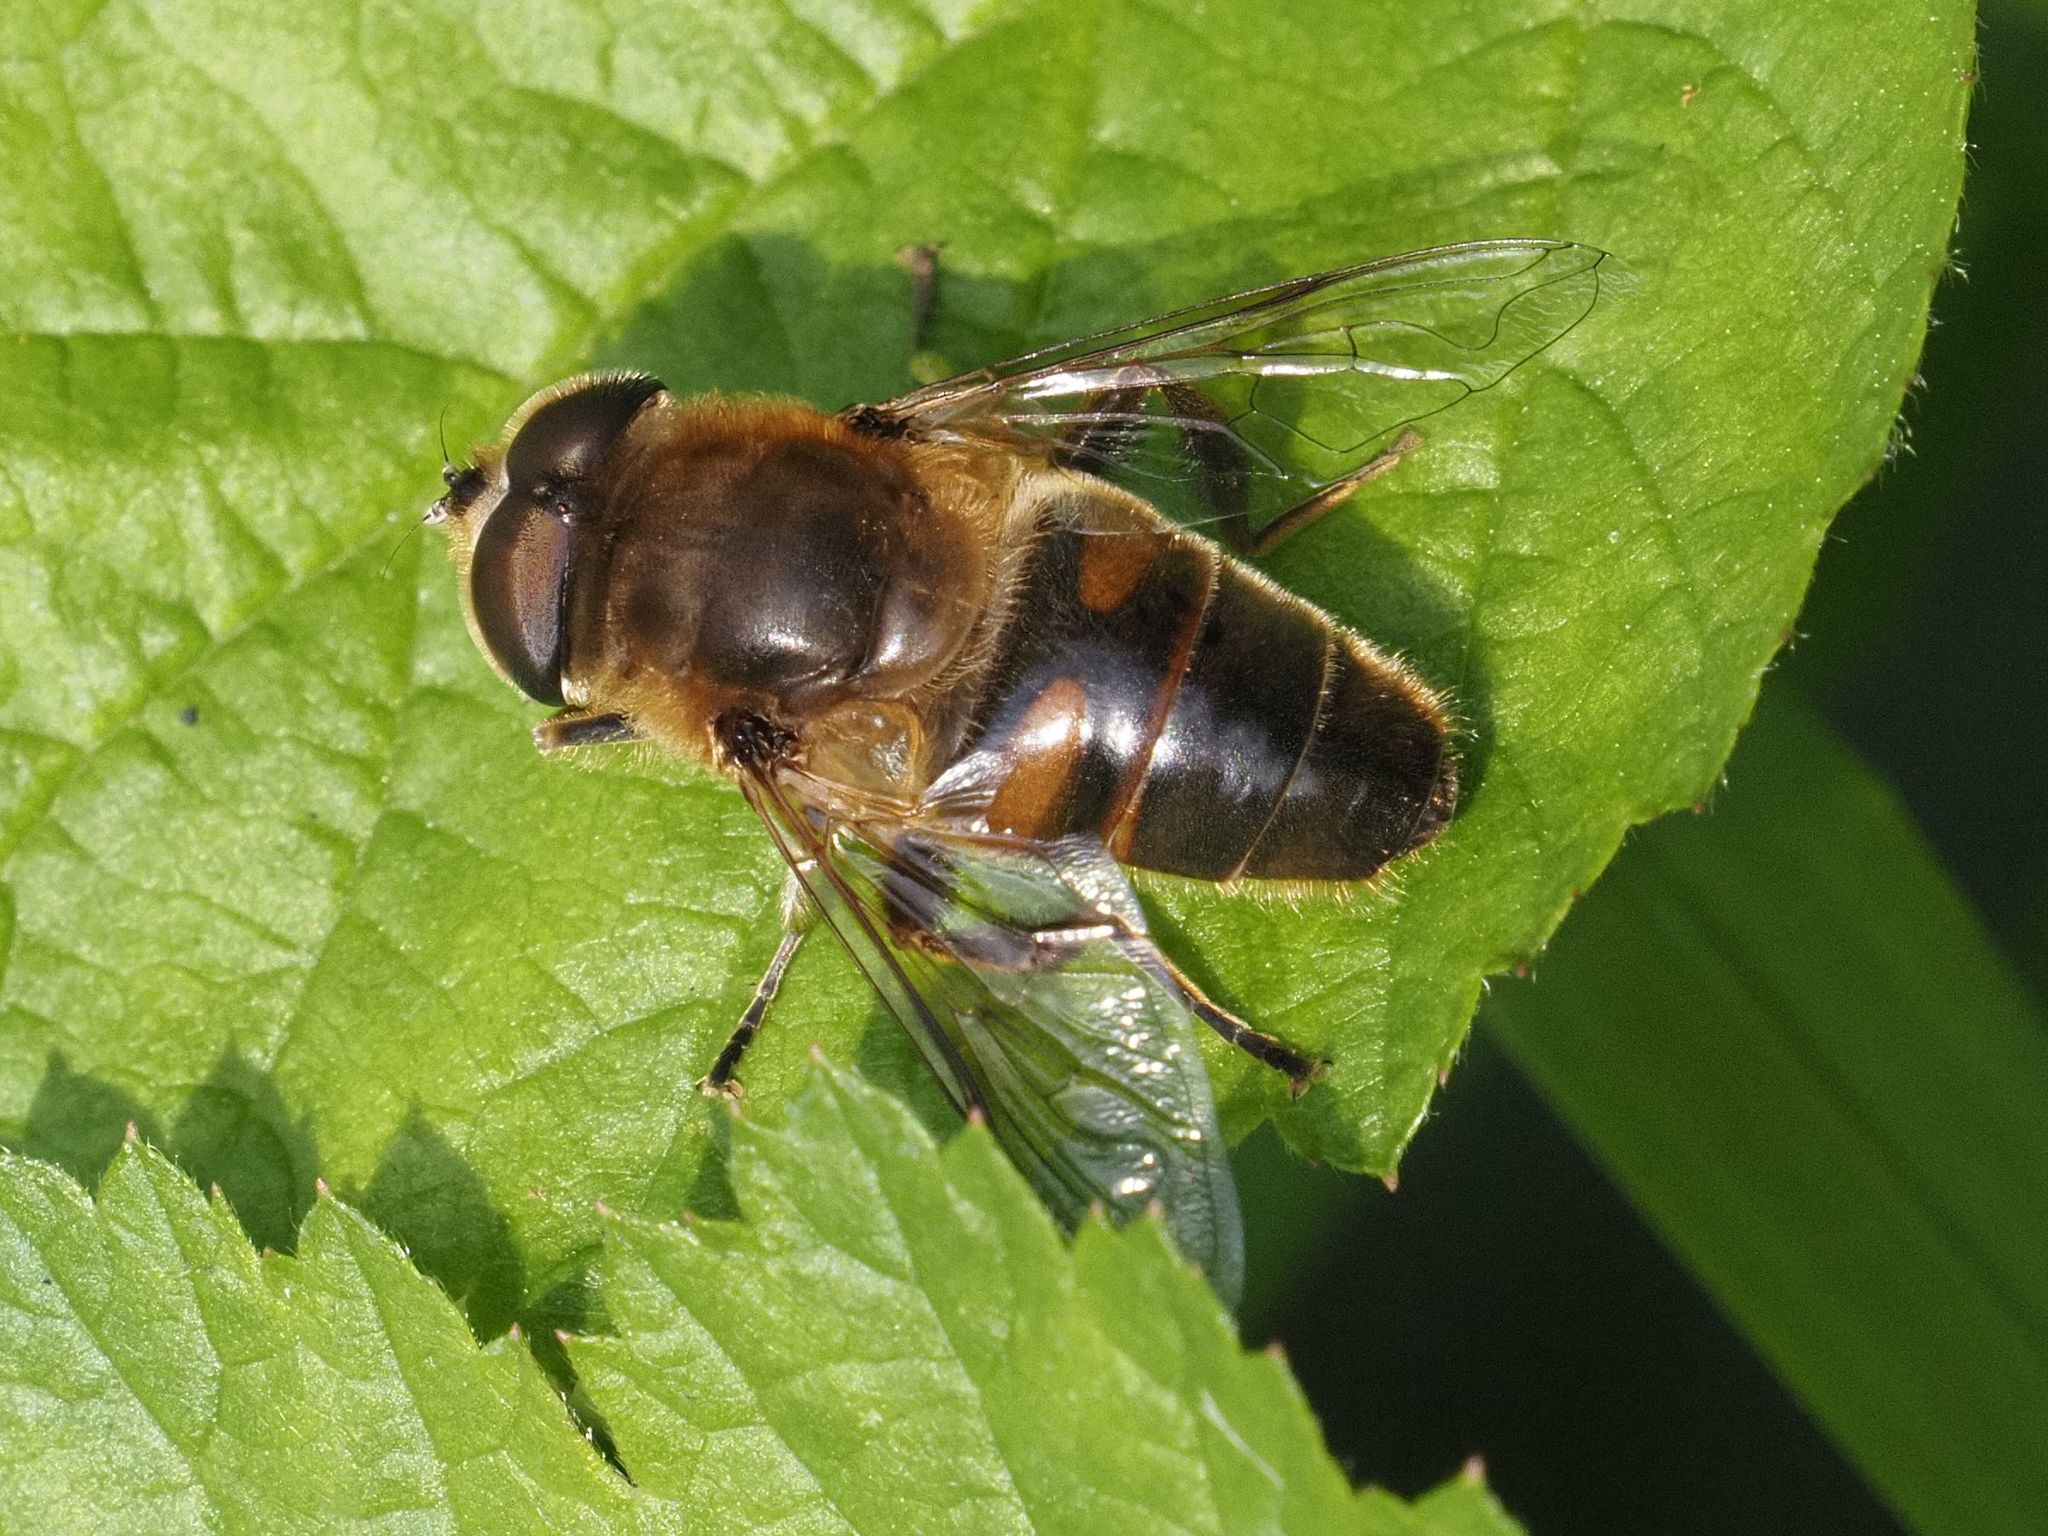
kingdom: Animalia
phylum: Arthropoda
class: Insecta
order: Diptera
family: Syrphidae
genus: Eristalis
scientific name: Eristalis tenax
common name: Drone fly
